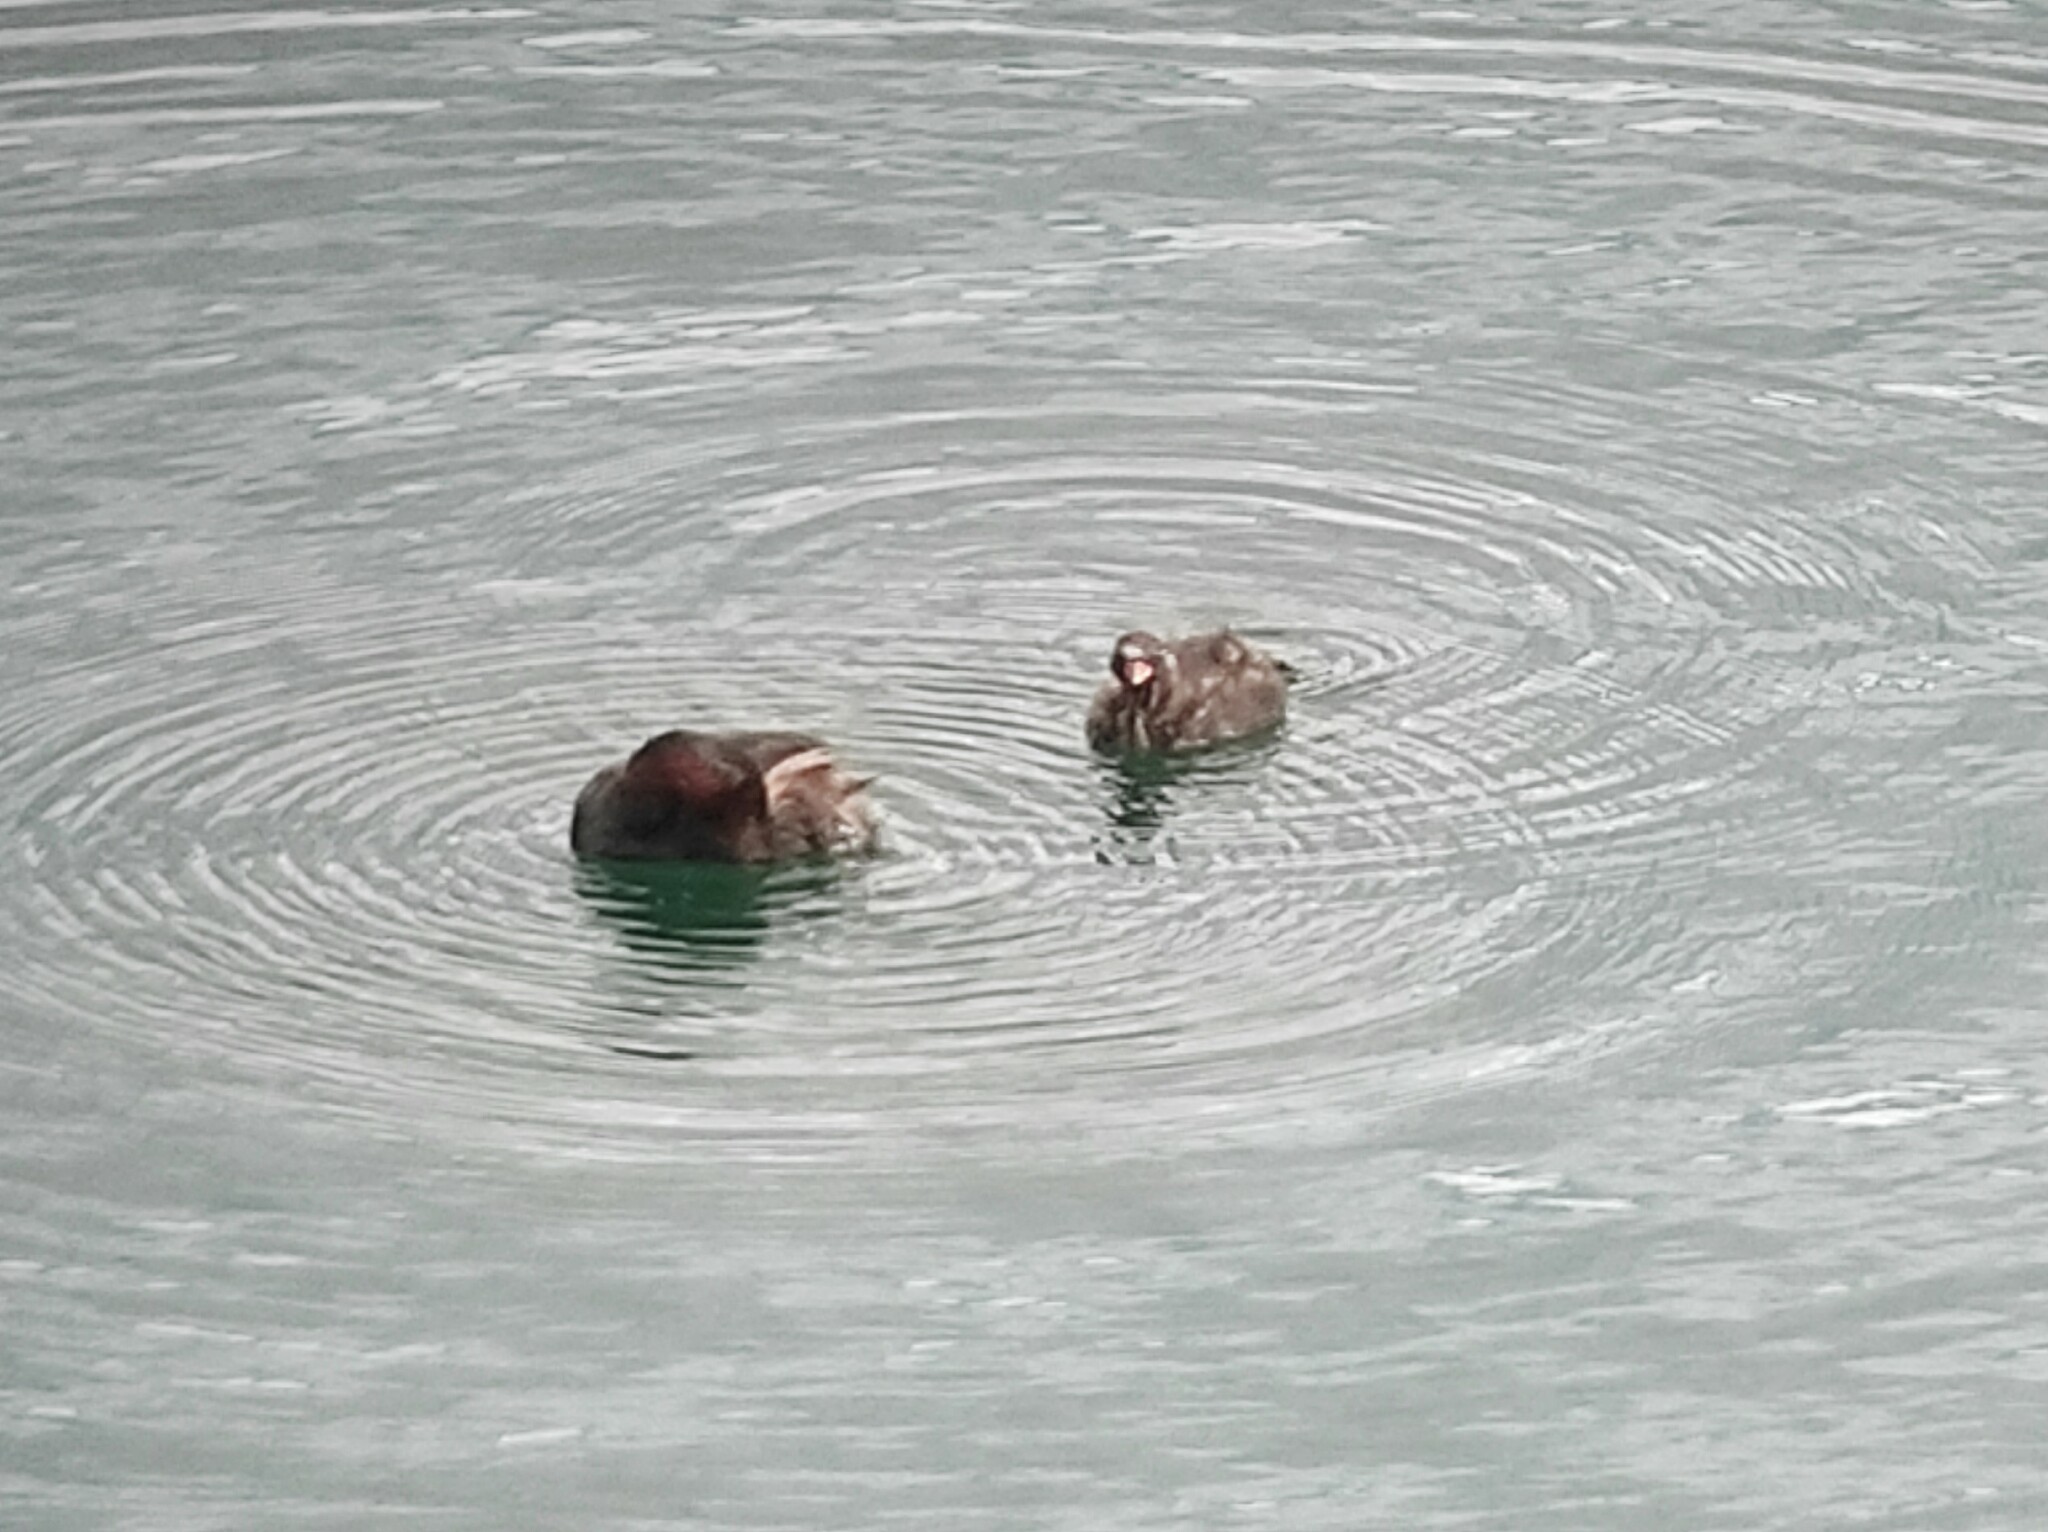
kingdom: Animalia
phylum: Chordata
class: Aves
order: Podicipediformes
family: Podicipedidae
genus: Tachybaptus
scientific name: Tachybaptus ruficollis
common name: Little grebe
